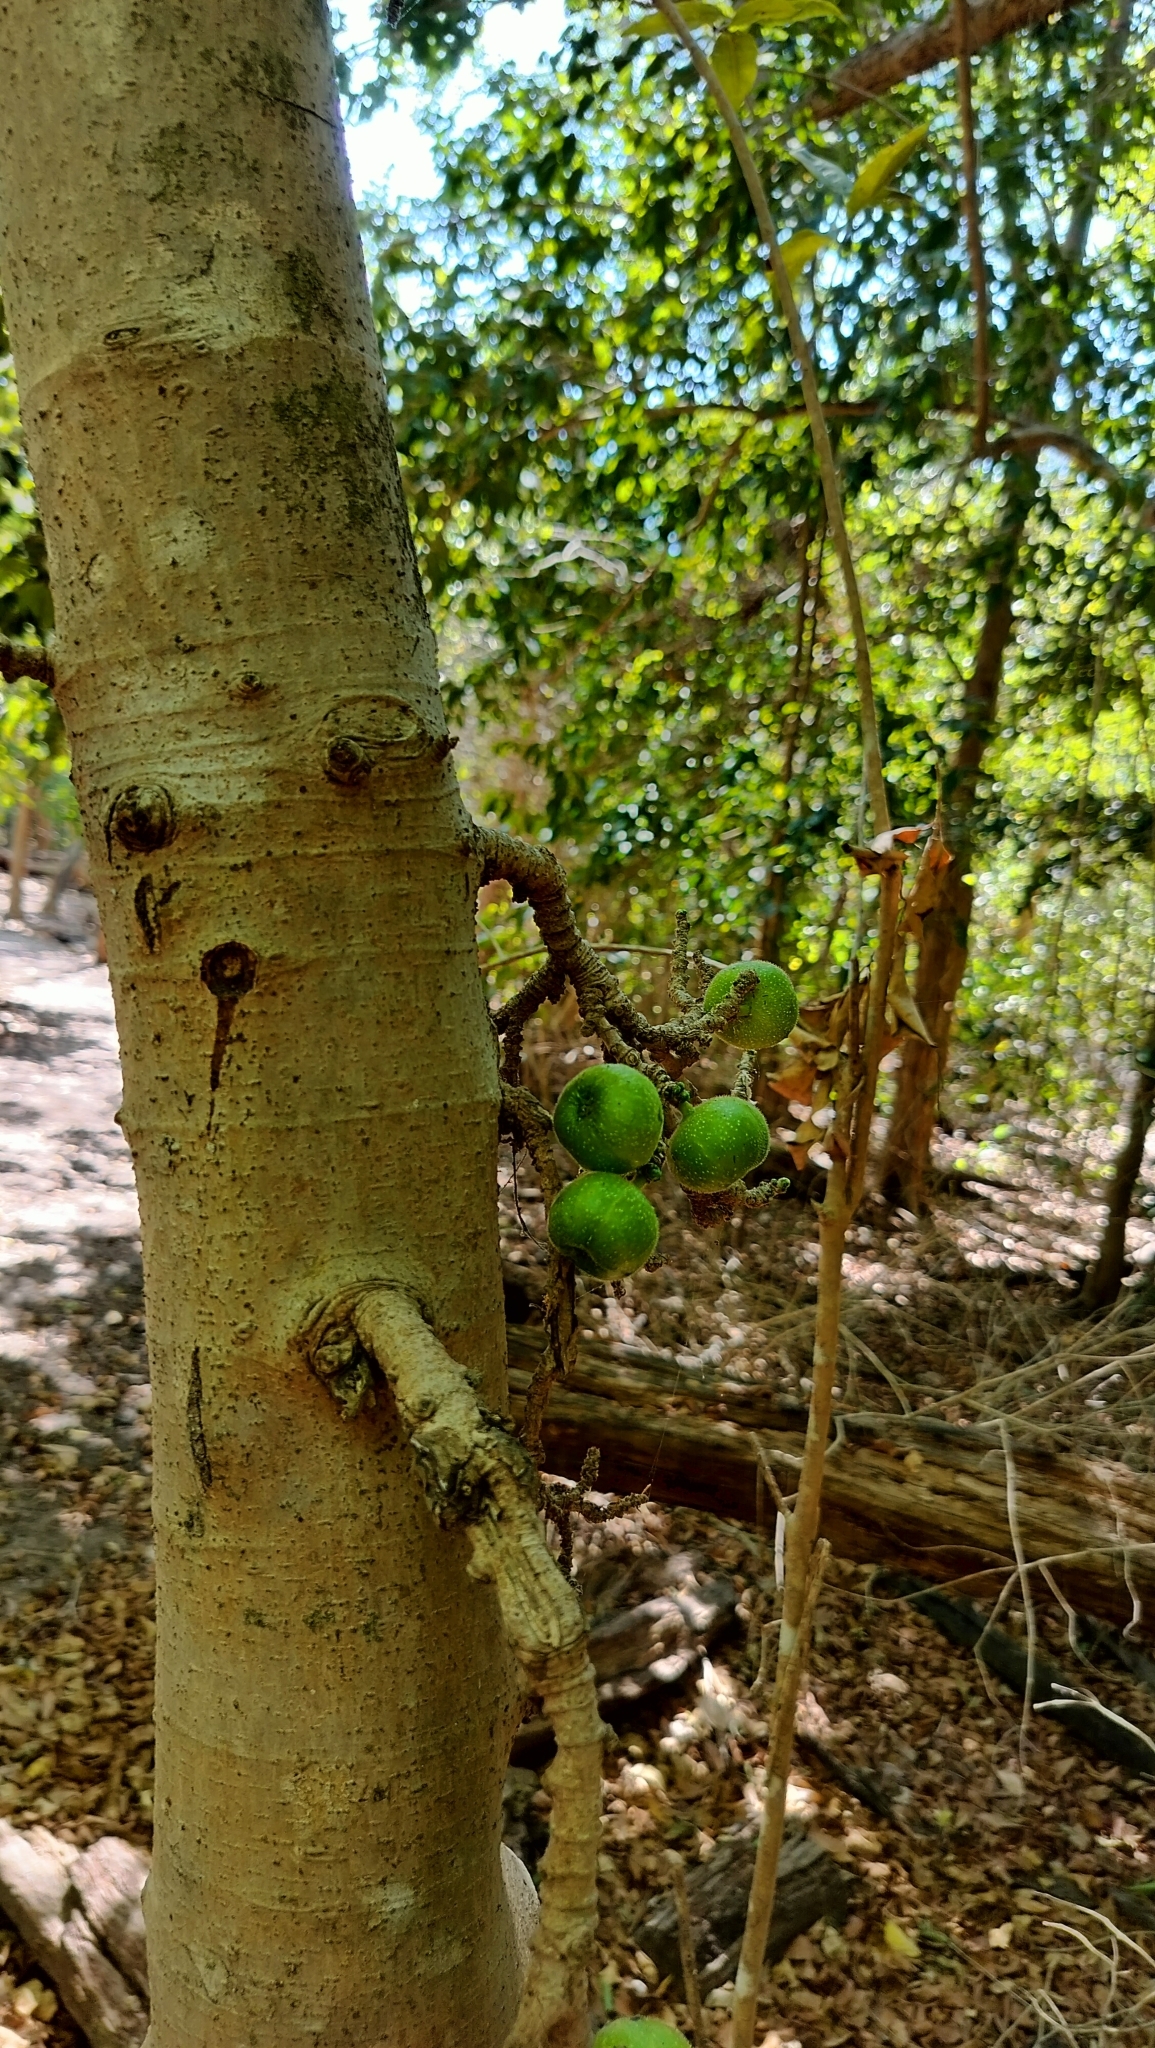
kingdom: Plantae
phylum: Tracheophyta
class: Magnoliopsida
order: Rosales
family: Moraceae
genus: Ficus
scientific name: Ficus hispida
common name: Hairy fig
